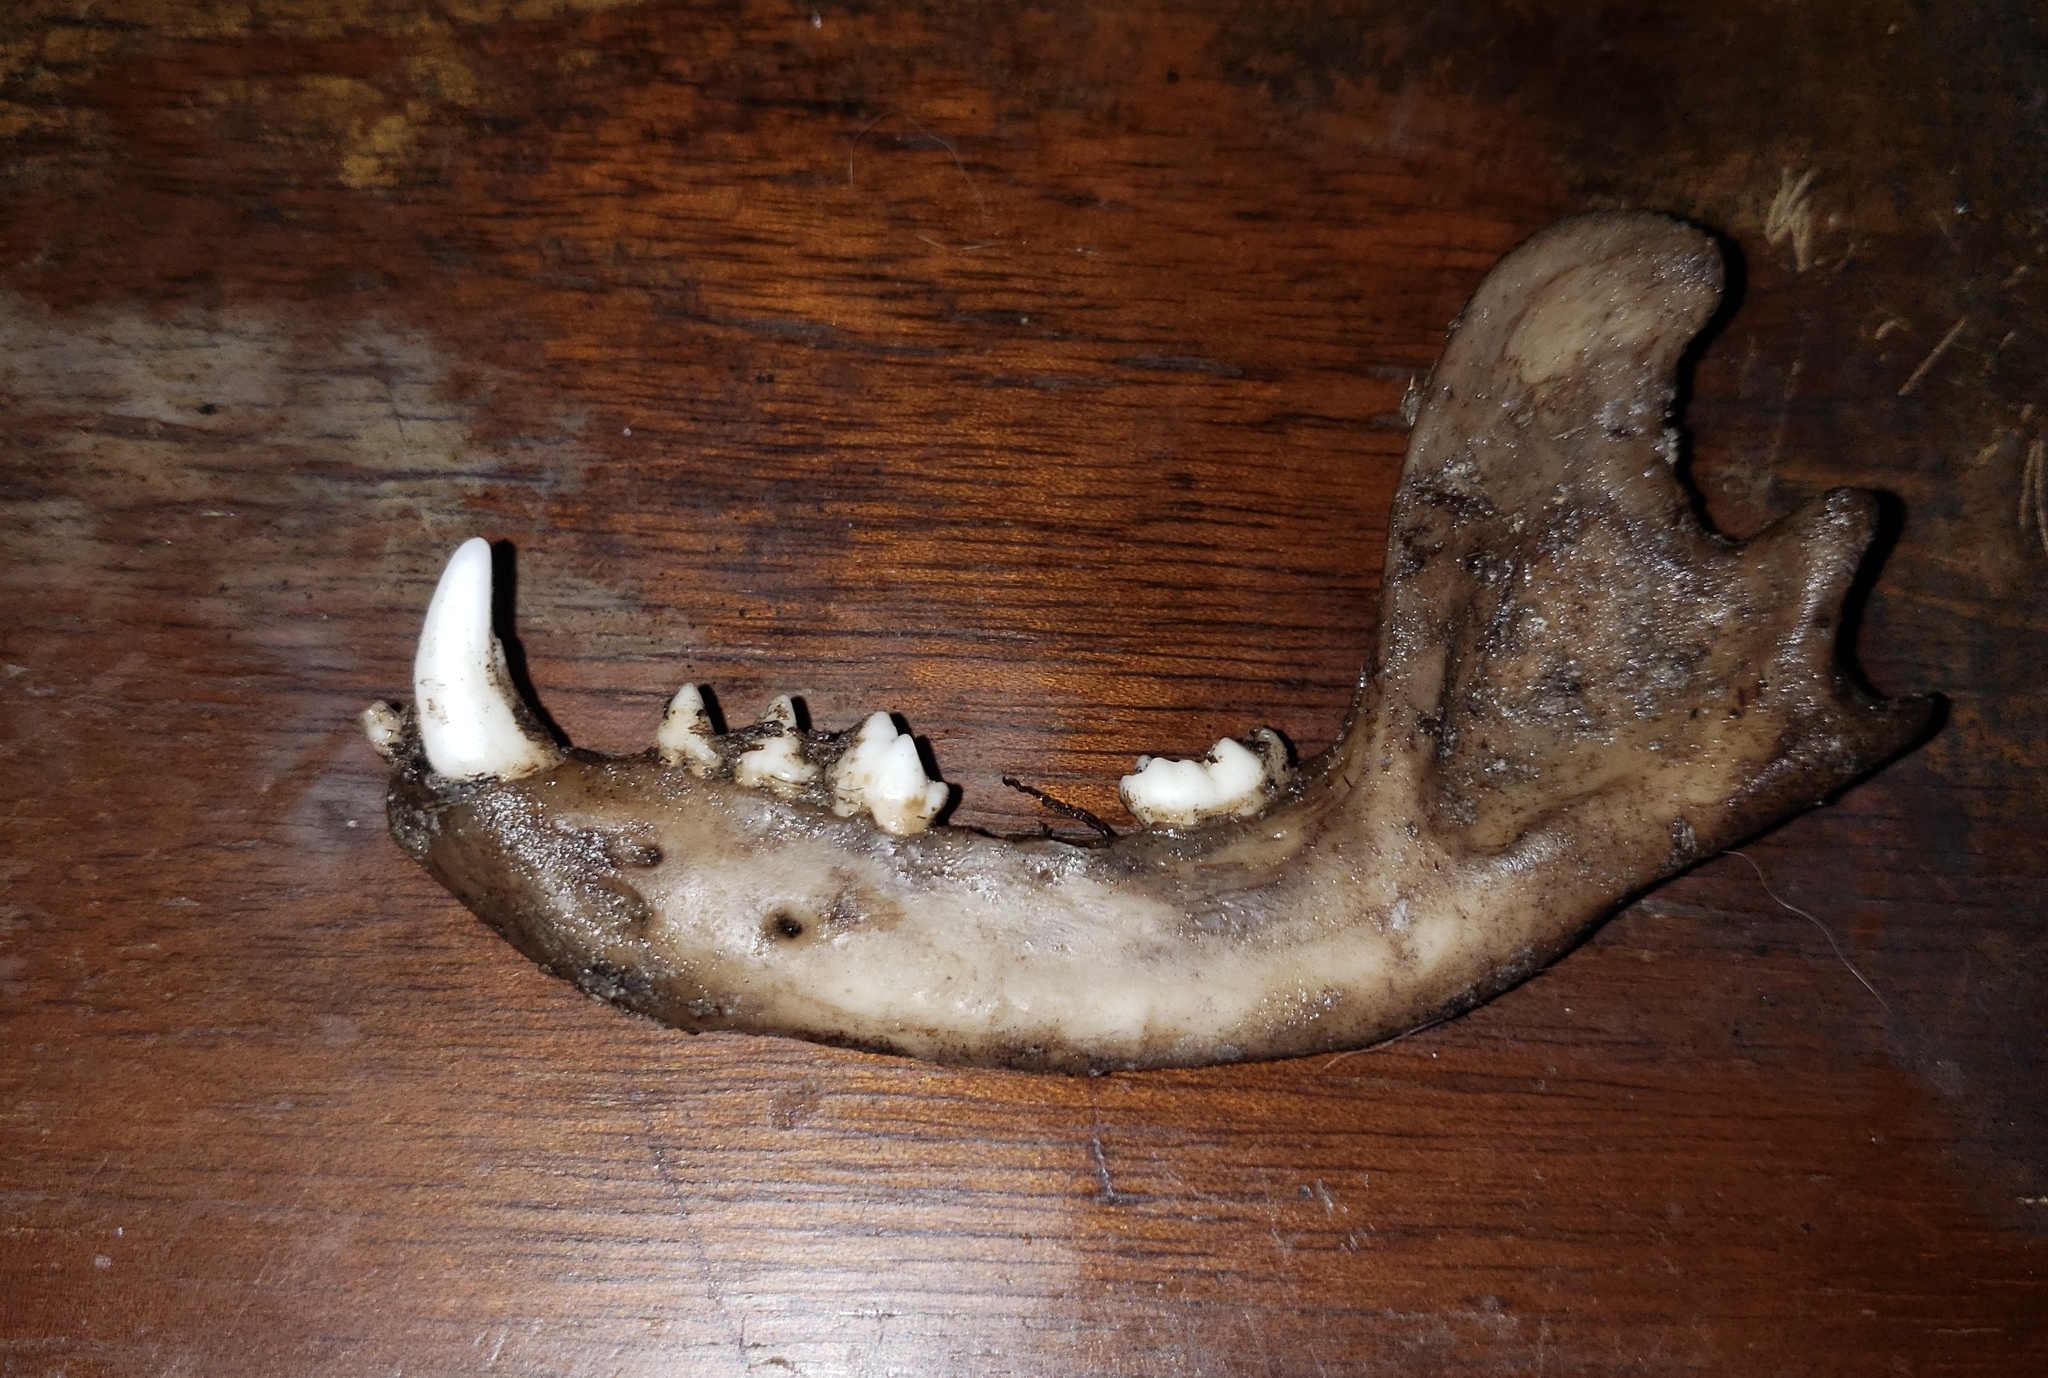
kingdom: Animalia
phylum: Chordata
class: Mammalia
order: Carnivora
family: Procyonidae
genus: Procyon
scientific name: Procyon lotor
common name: Raccoon
